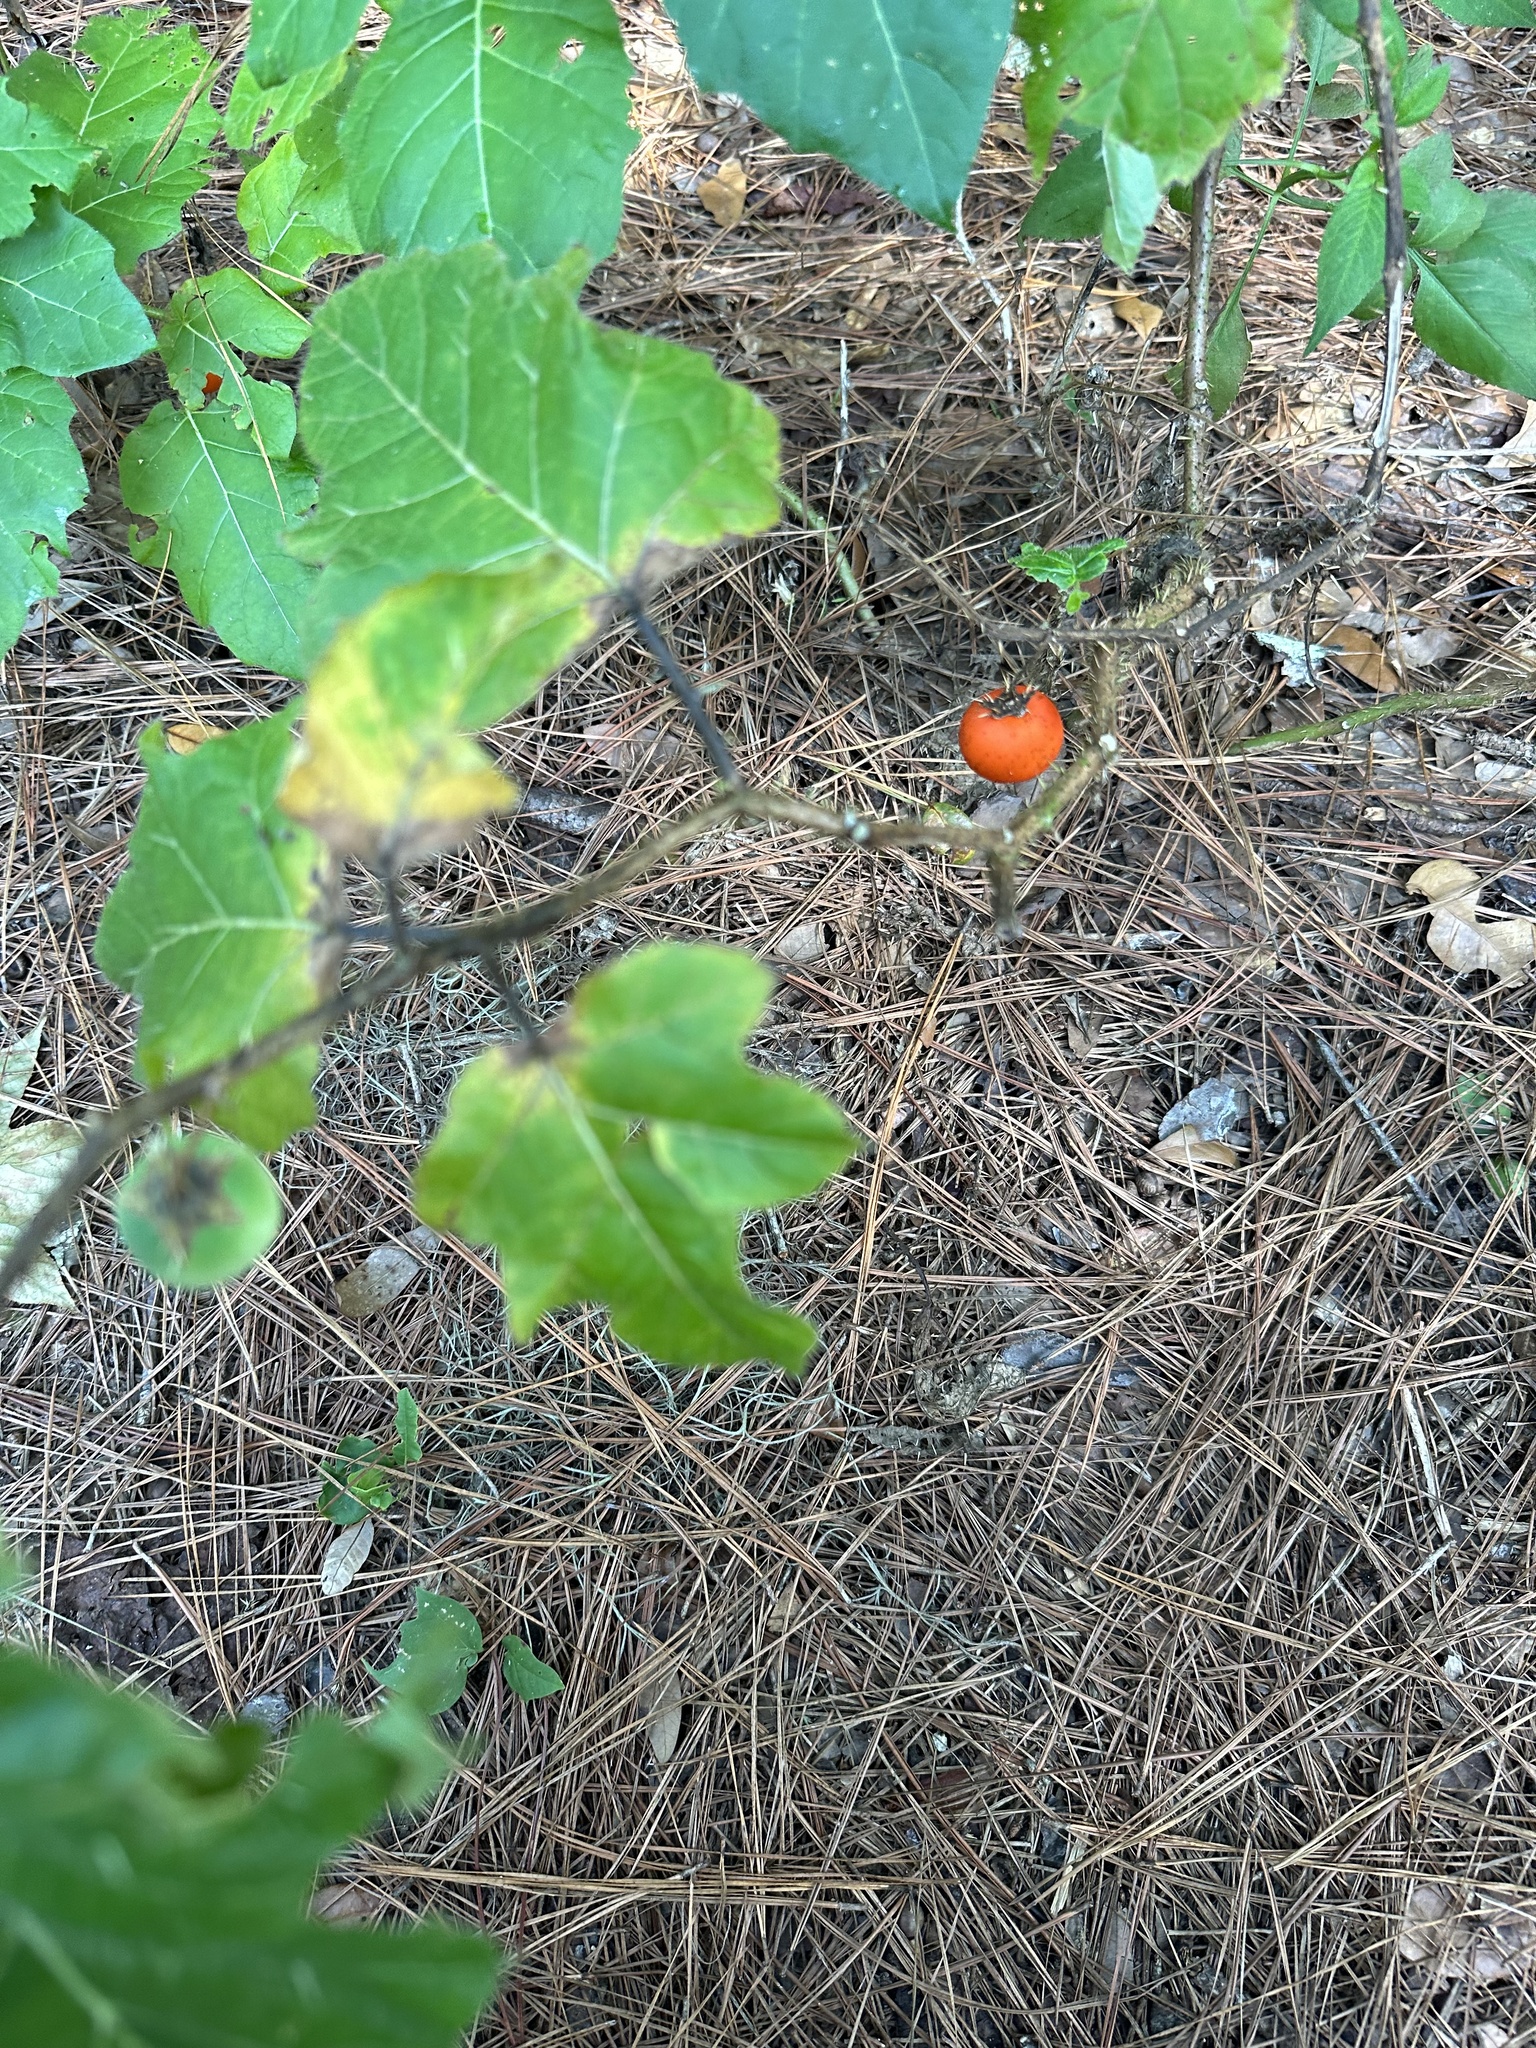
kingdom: Plantae
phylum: Tracheophyta
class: Magnoliopsida
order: Solanales
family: Solanaceae
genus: Solanum
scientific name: Solanum capsicoides
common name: Cockroach berry
